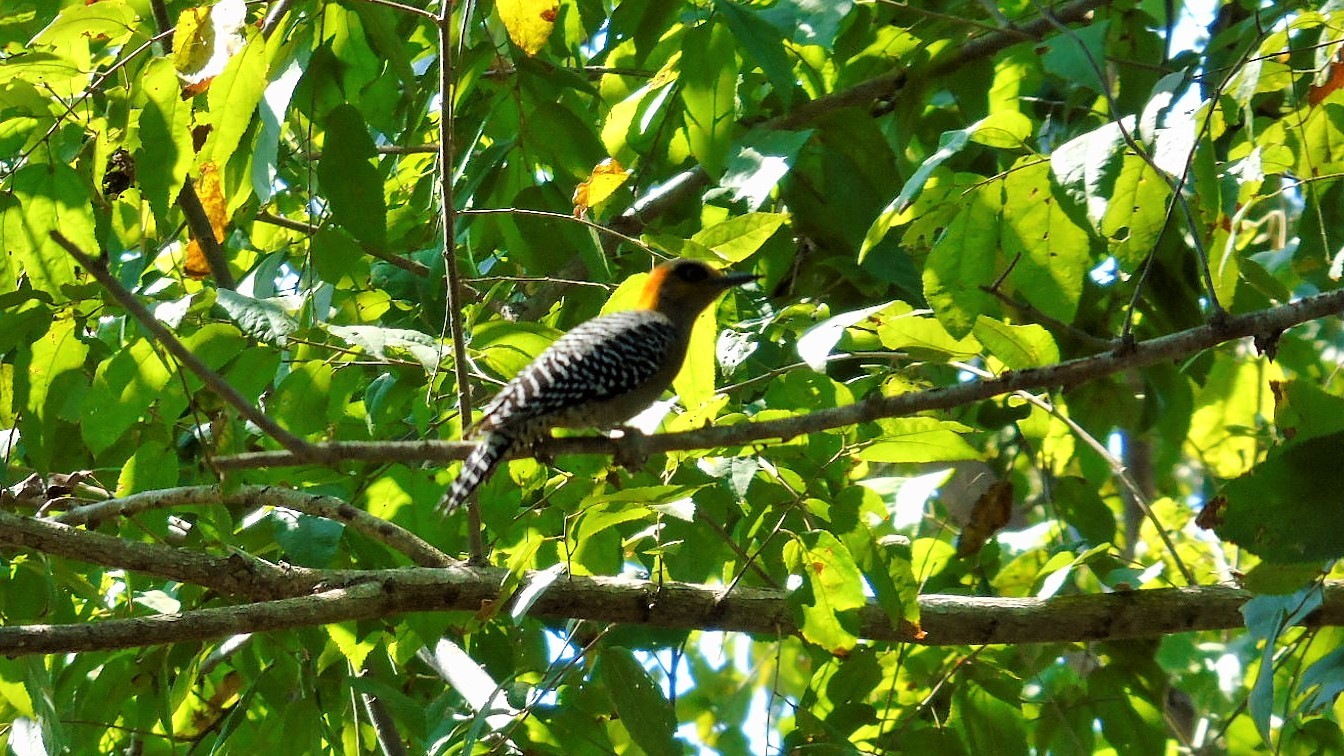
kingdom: Animalia
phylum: Chordata
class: Aves
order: Piciformes
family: Picidae
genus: Melanerpes
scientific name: Melanerpes chrysogenys
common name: Golden-cheeked woodpecker
